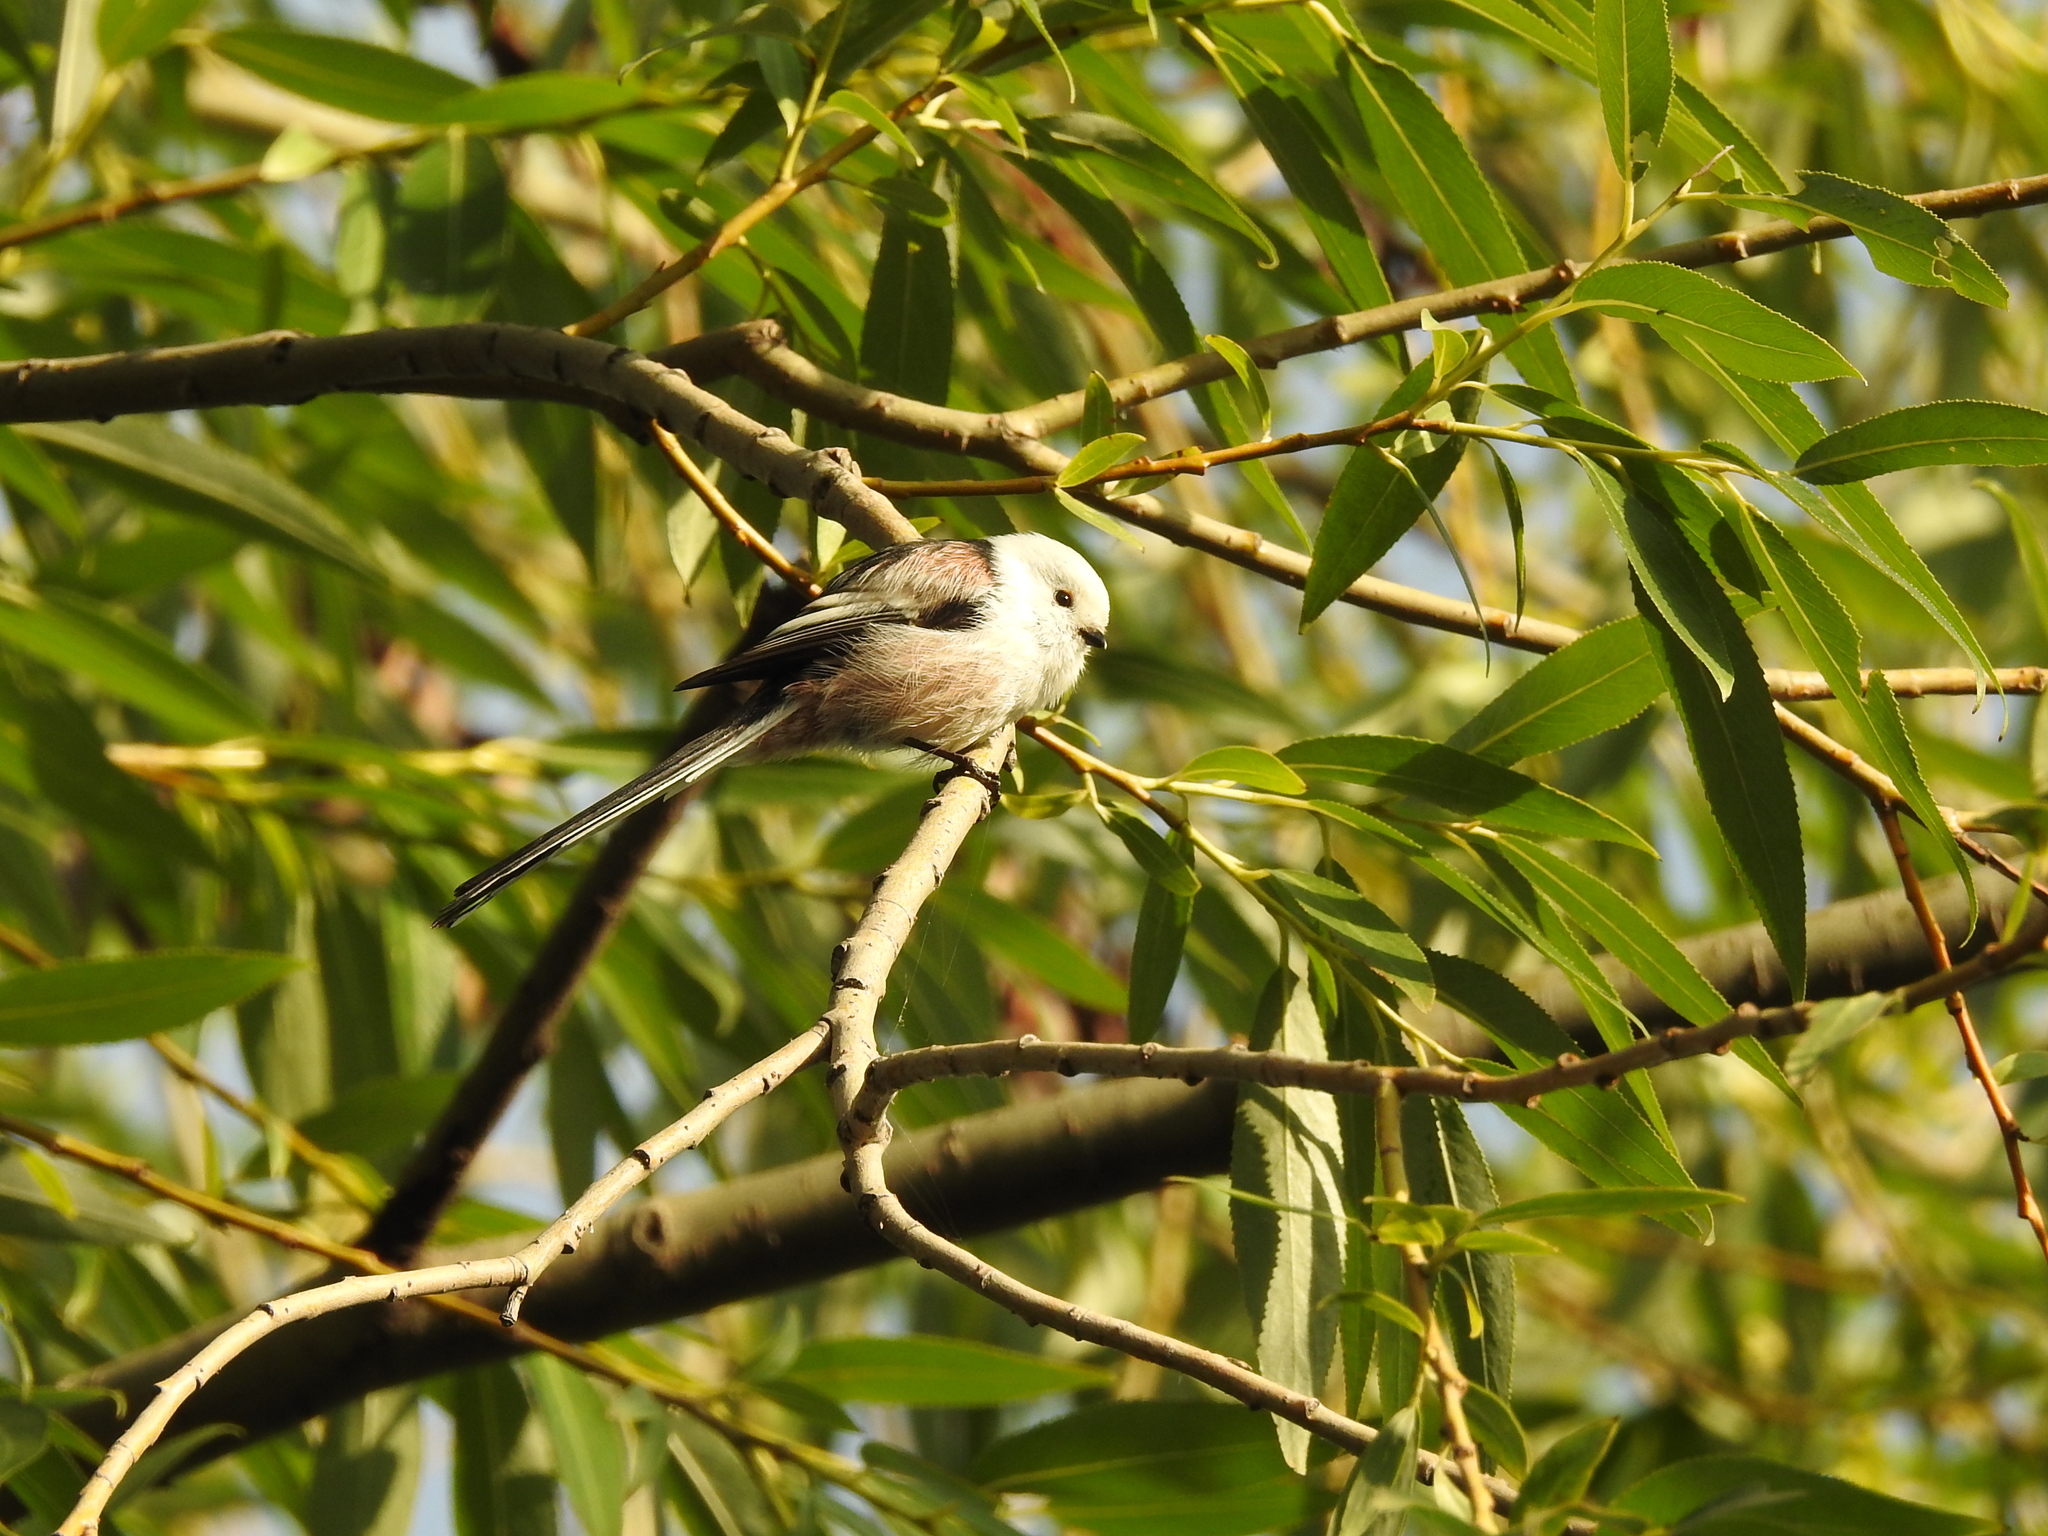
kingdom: Animalia
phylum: Chordata
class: Aves
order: Passeriformes
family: Aegithalidae
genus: Aegithalos
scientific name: Aegithalos caudatus
